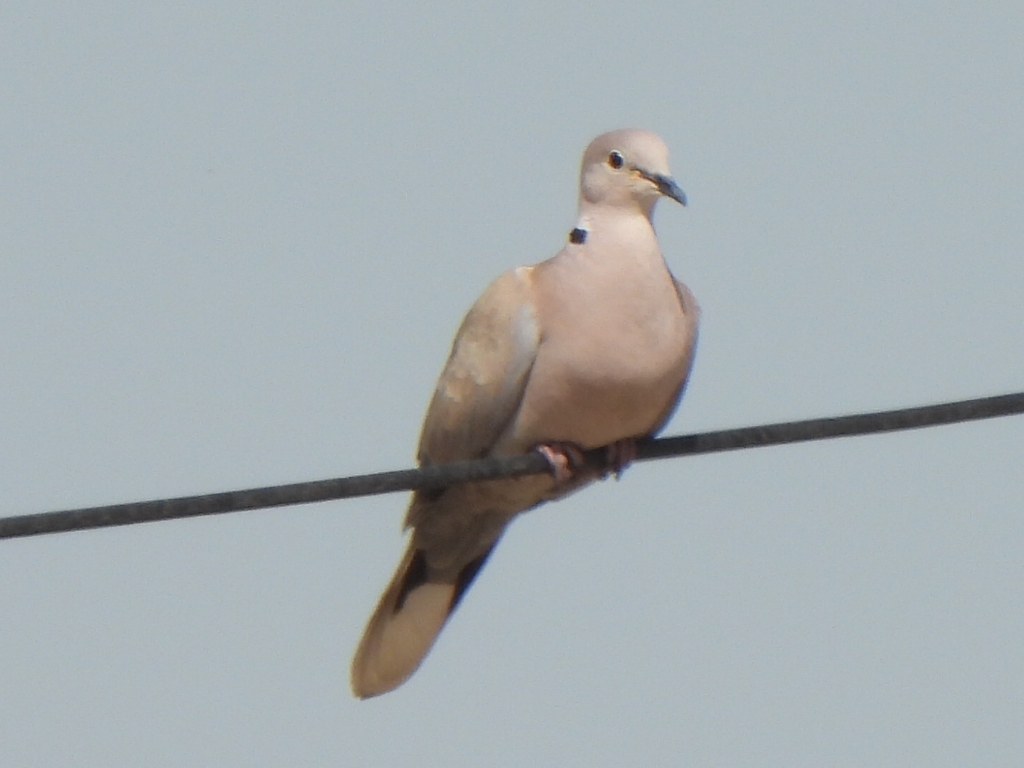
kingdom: Animalia
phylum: Chordata
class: Aves
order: Columbiformes
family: Columbidae
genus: Streptopelia
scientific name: Streptopelia decaocto
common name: Eurasian collared dove
